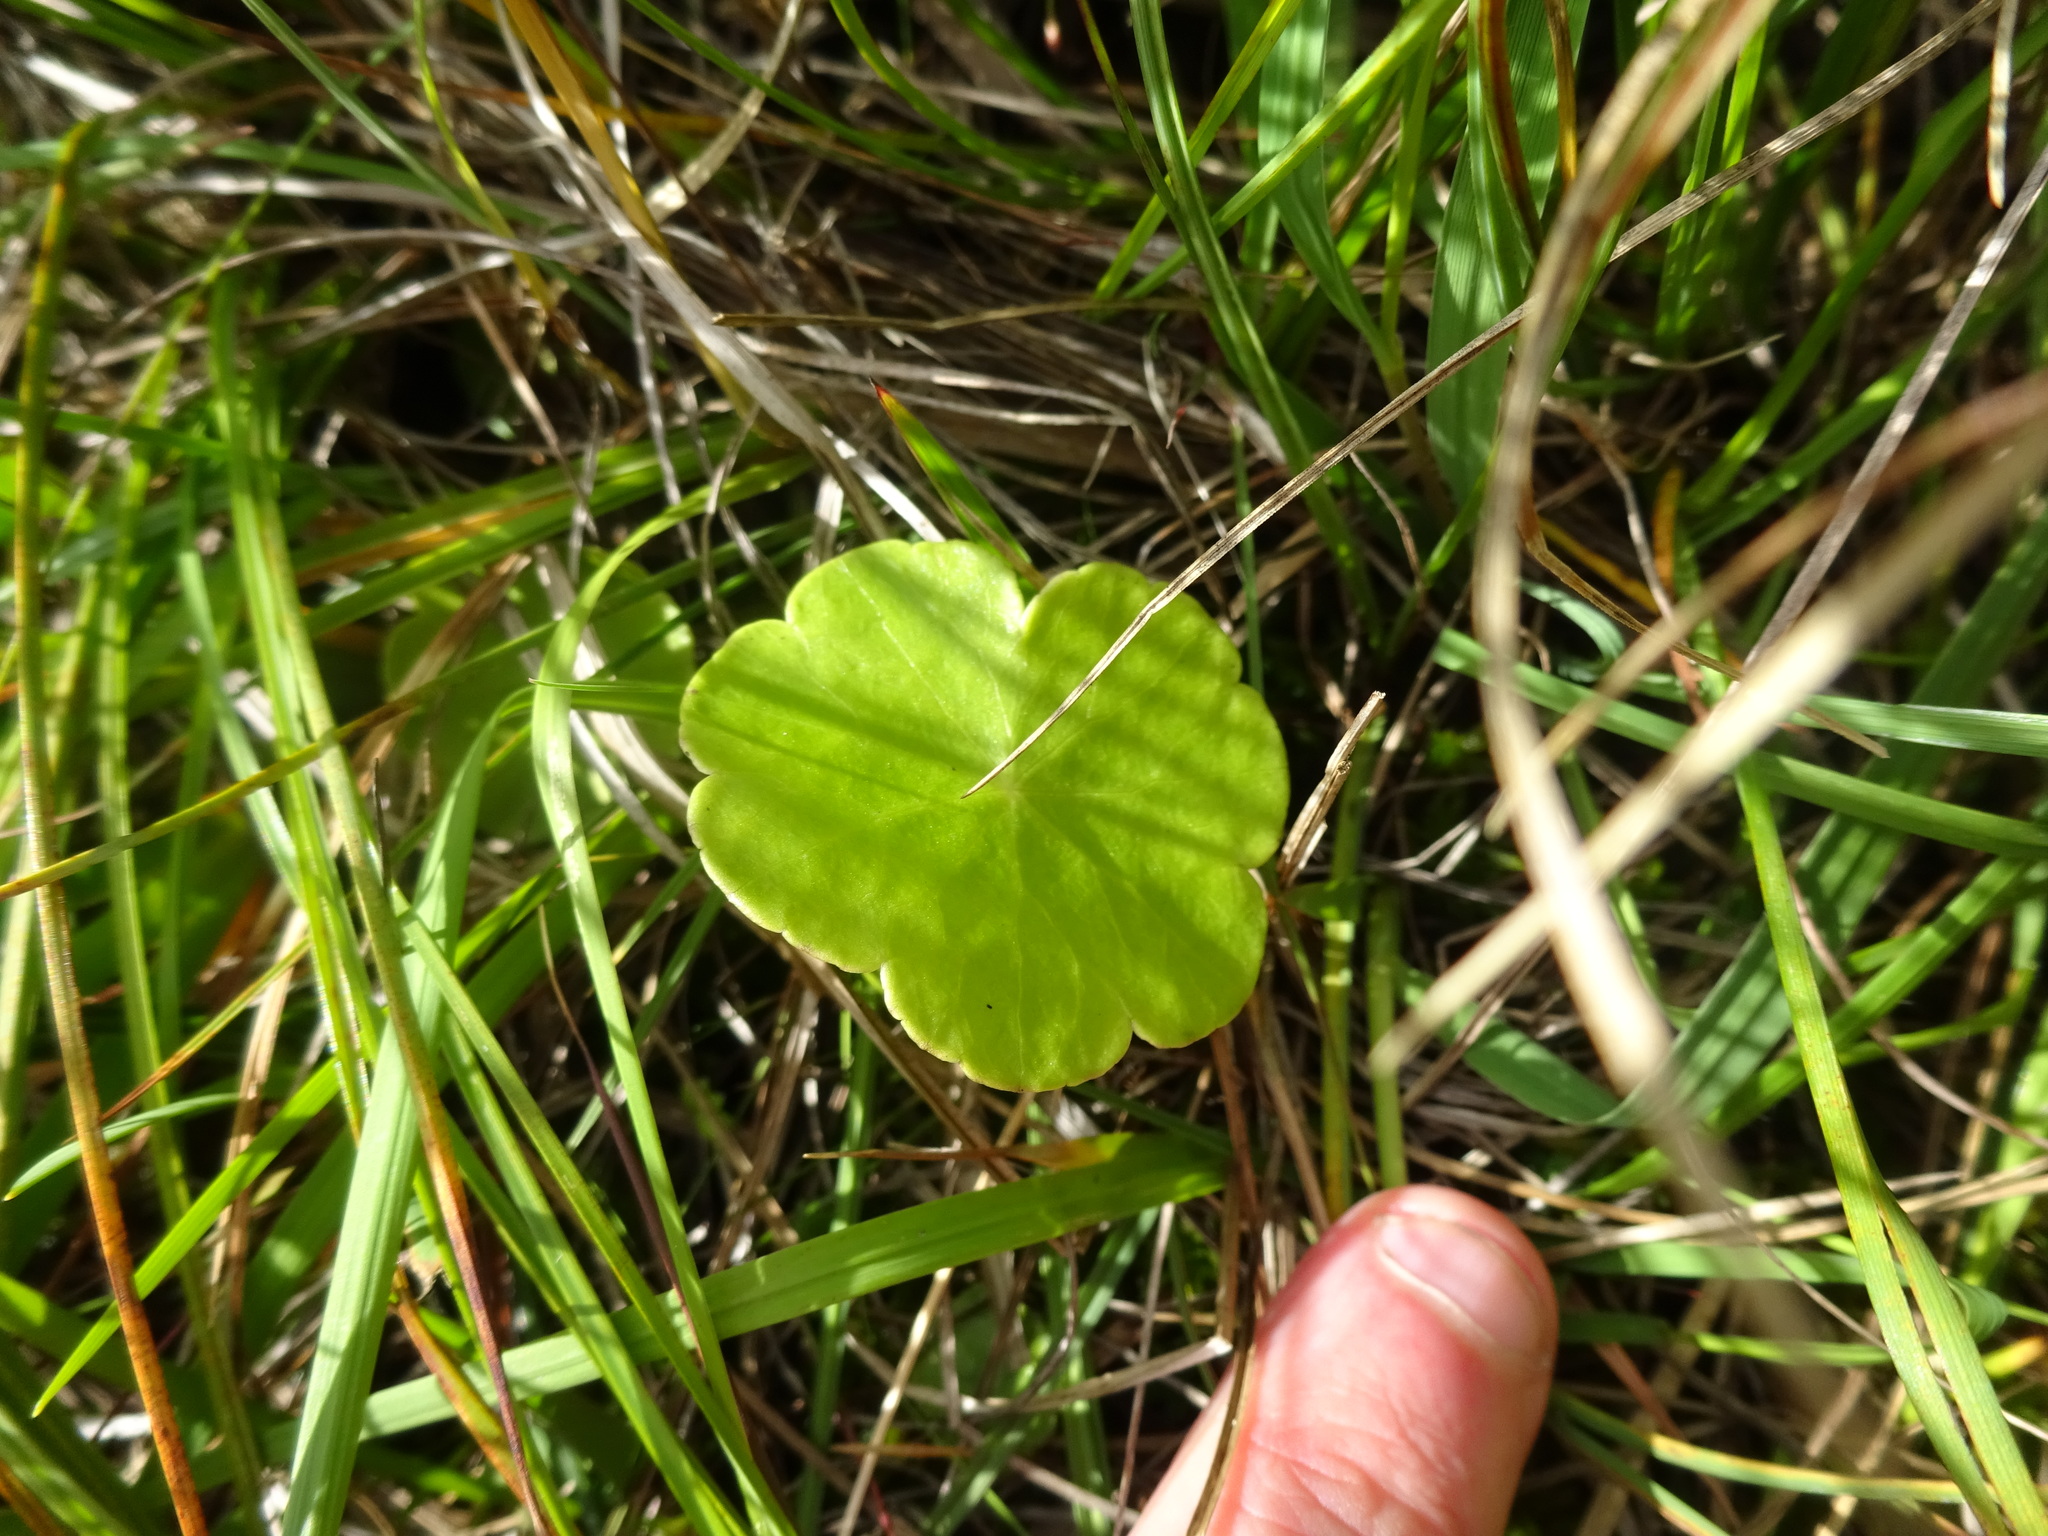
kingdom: Plantae
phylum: Tracheophyta
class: Magnoliopsida
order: Apiales
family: Araliaceae
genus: Hydrocotyle
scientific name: Hydrocotyle vulgaris
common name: Marsh pennywort
